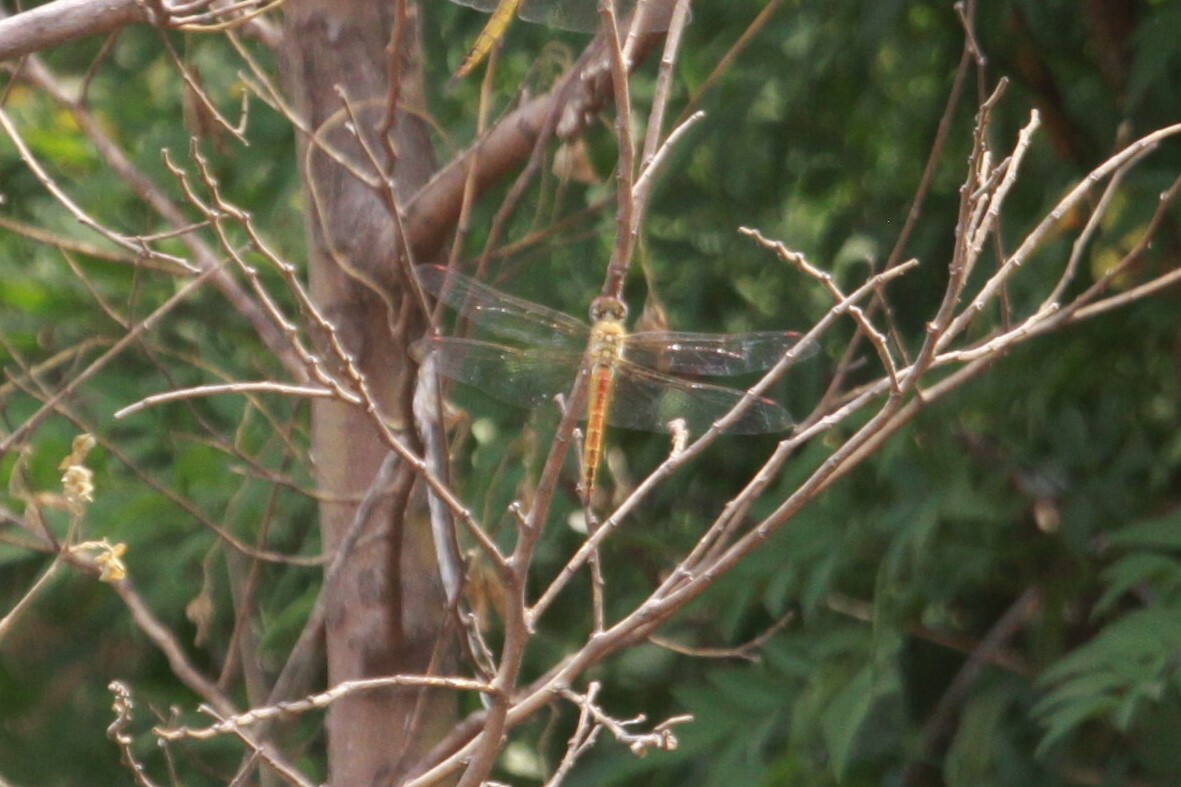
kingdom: Animalia
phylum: Arthropoda
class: Insecta
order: Odonata
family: Libellulidae
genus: Pantala
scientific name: Pantala flavescens
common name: Wandering glider
